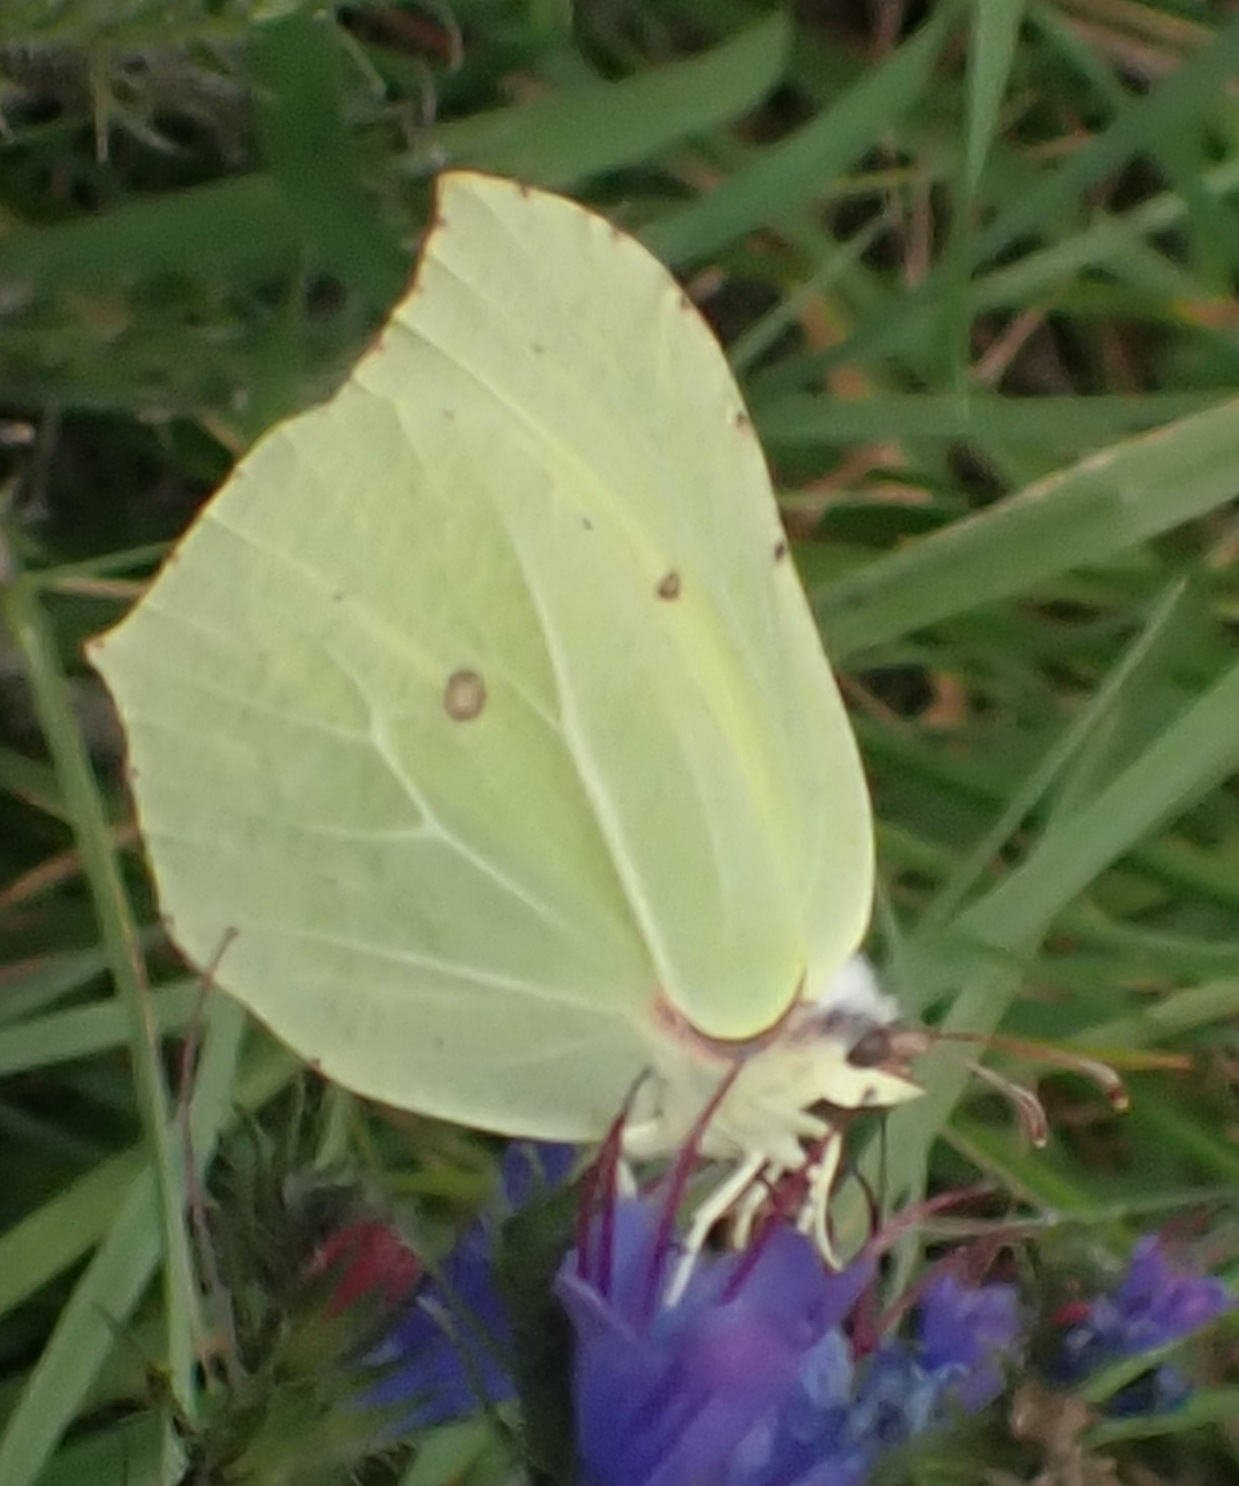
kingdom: Animalia
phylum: Arthropoda
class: Insecta
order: Lepidoptera
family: Pieridae
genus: Gonepteryx
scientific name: Gonepteryx rhamni
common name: Brimstone
